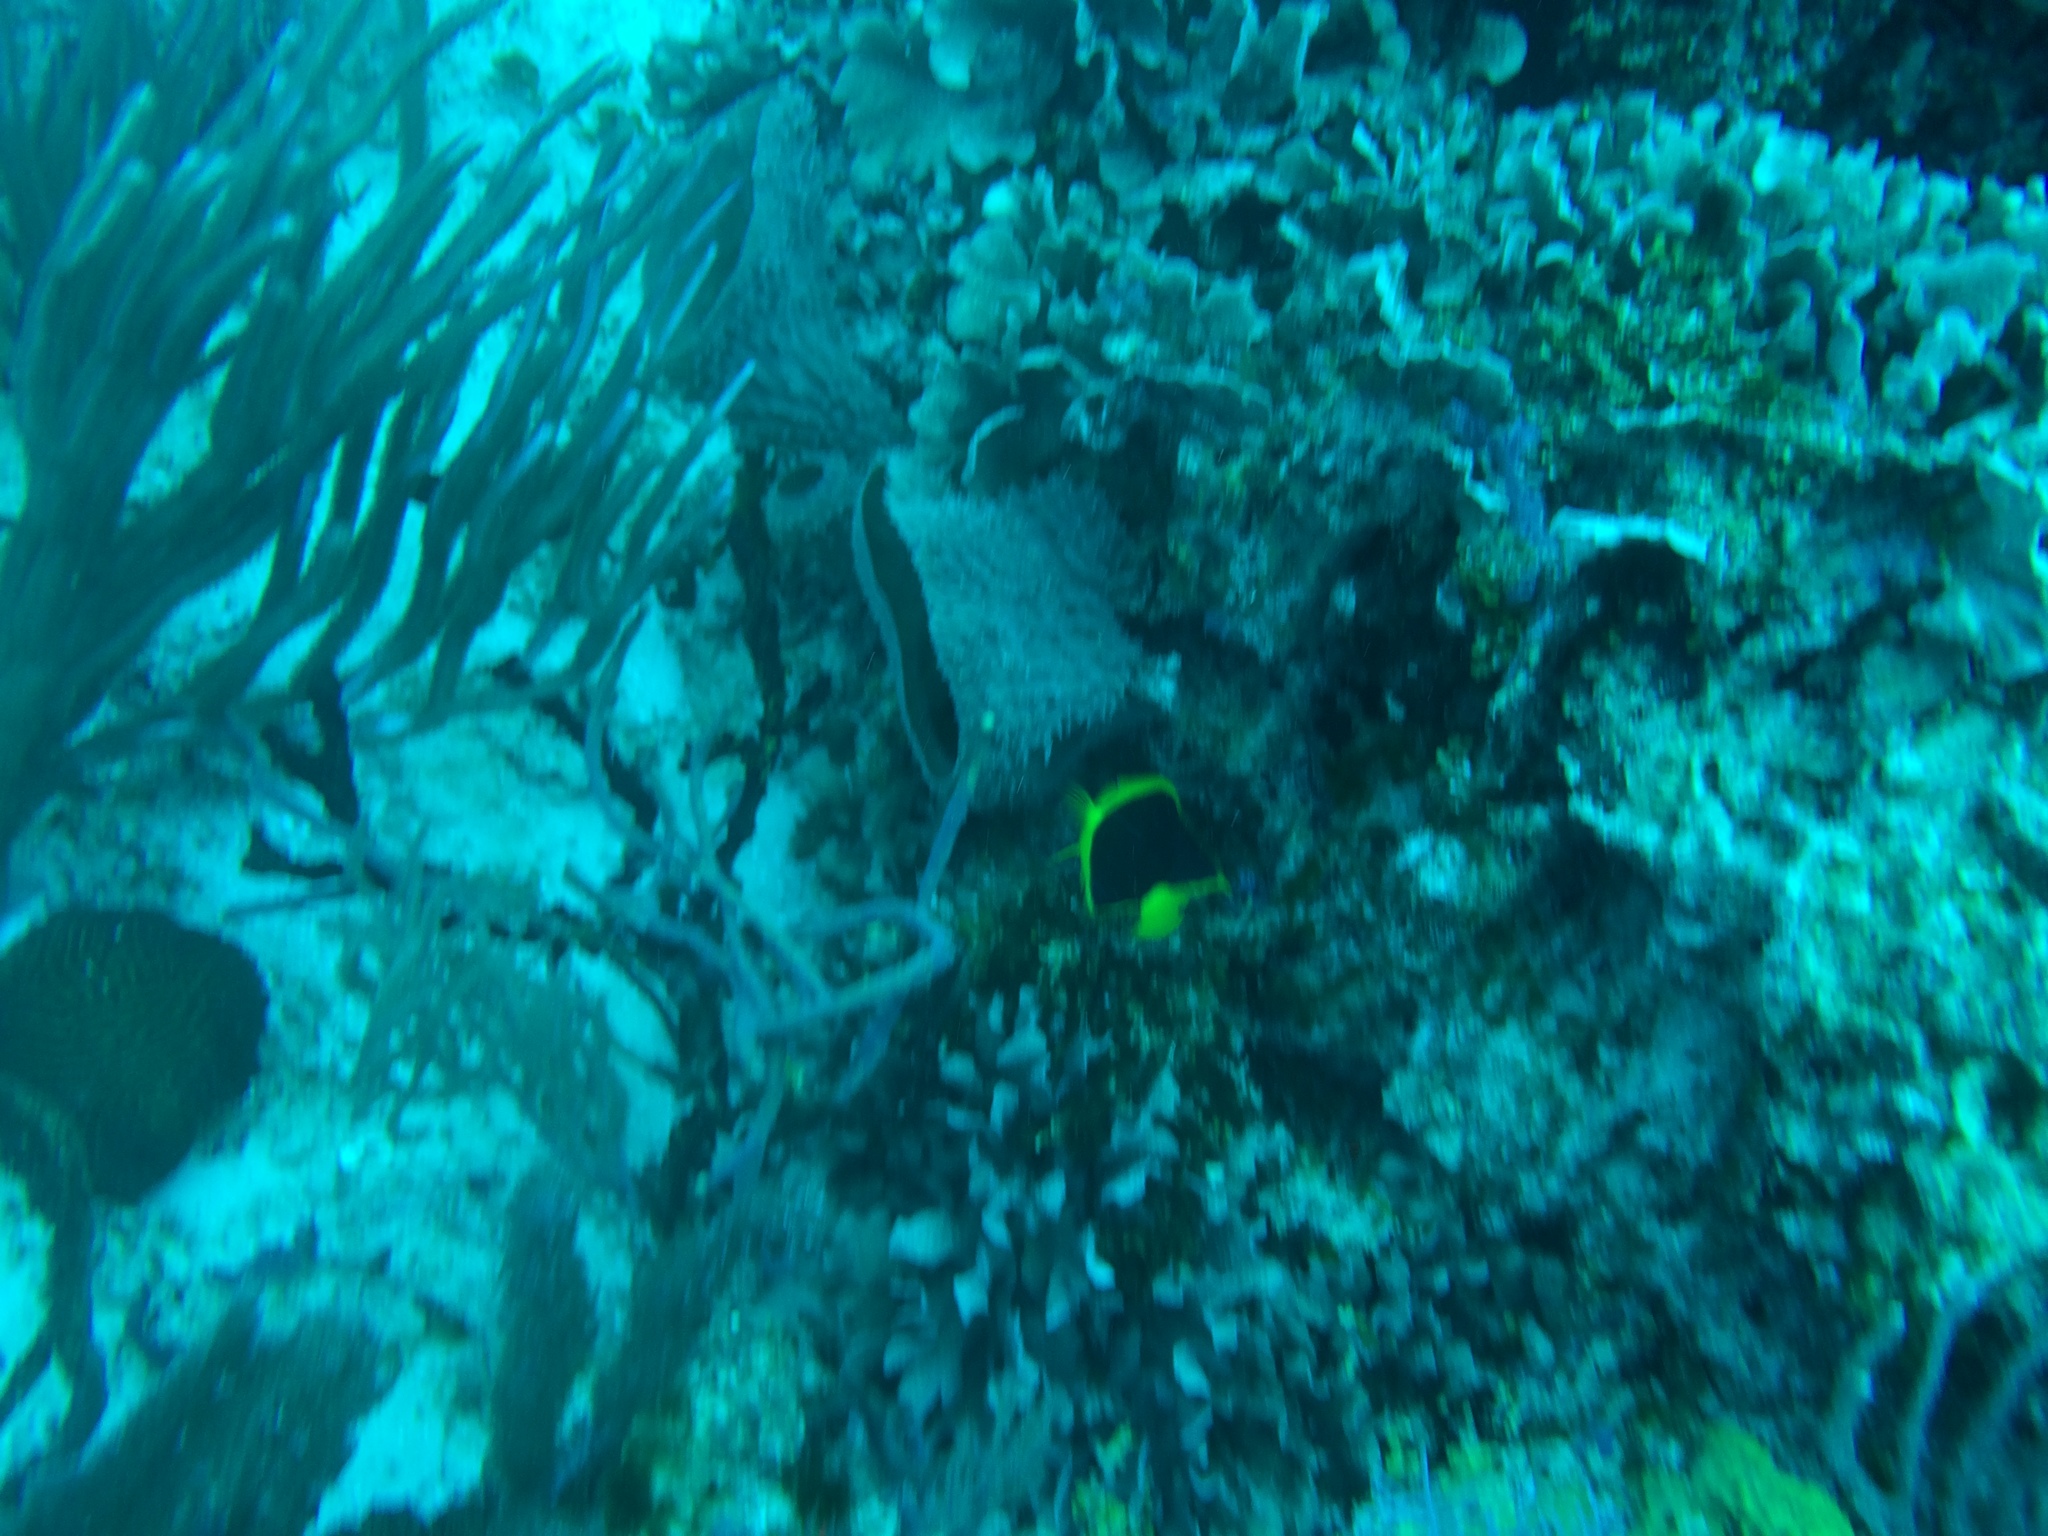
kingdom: Animalia
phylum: Chordata
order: Perciformes
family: Pomacanthidae
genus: Holacanthus
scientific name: Holacanthus tricolor
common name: Rock beauty
